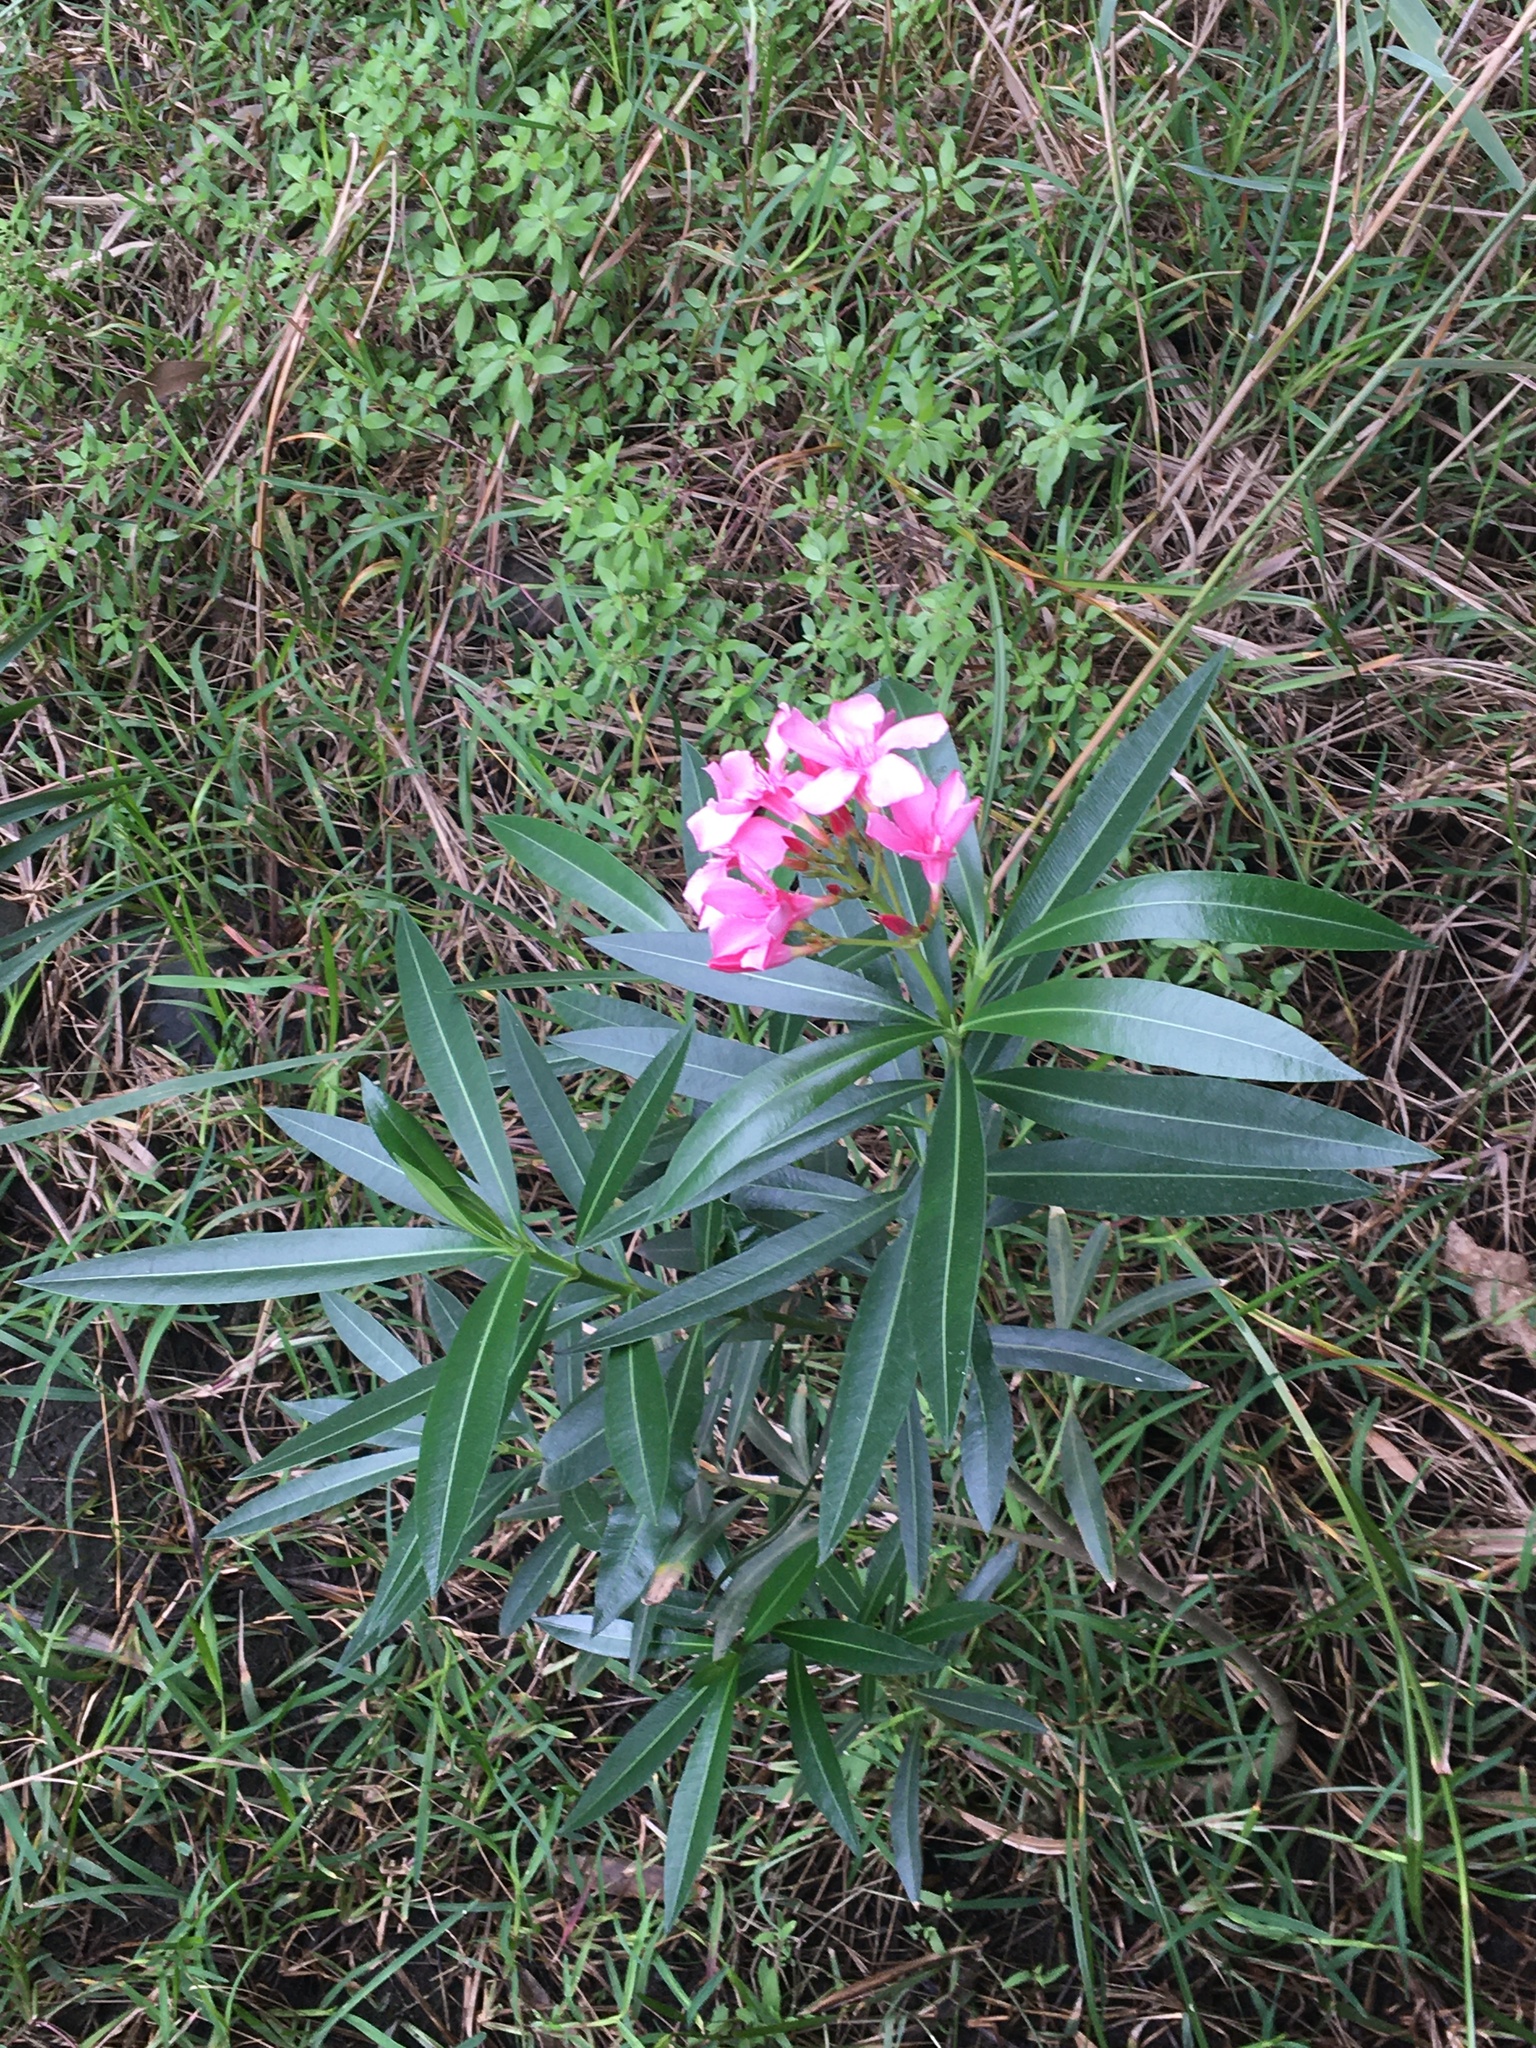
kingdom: Plantae
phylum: Tracheophyta
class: Magnoliopsida
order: Gentianales
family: Apocynaceae
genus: Nerium
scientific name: Nerium oleander
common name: Oleander
